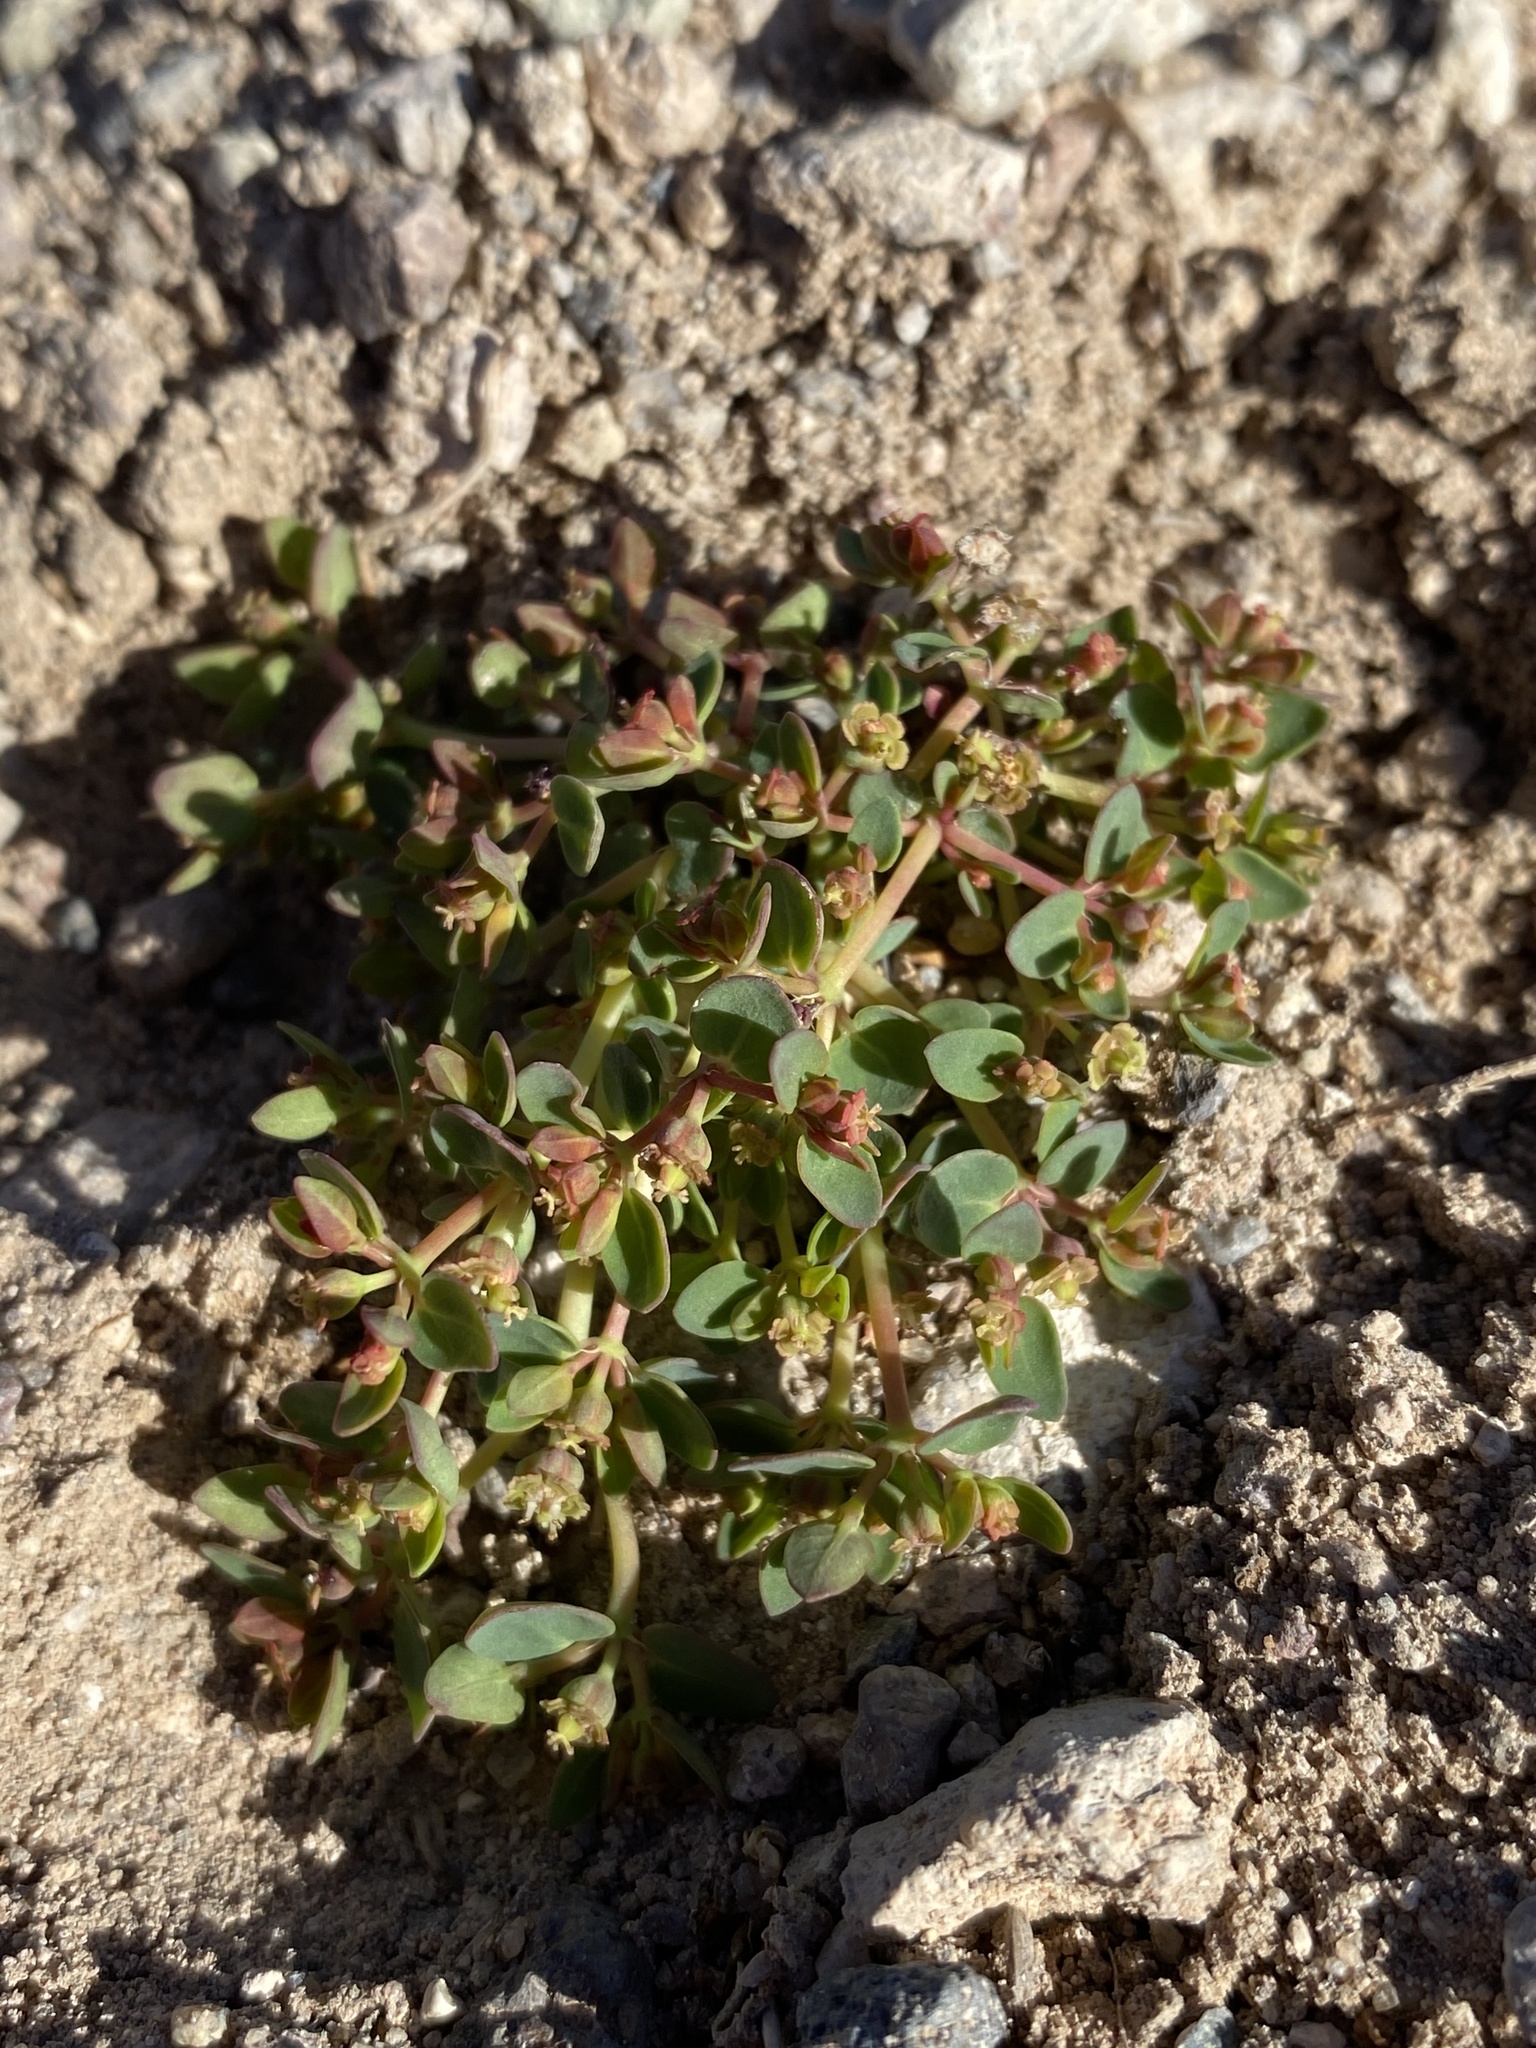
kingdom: Plantae
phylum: Tracheophyta
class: Magnoliopsida
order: Malpighiales
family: Euphorbiaceae
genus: Euphorbia
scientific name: Euphorbia fendleri
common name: Fendler's euphorbia
